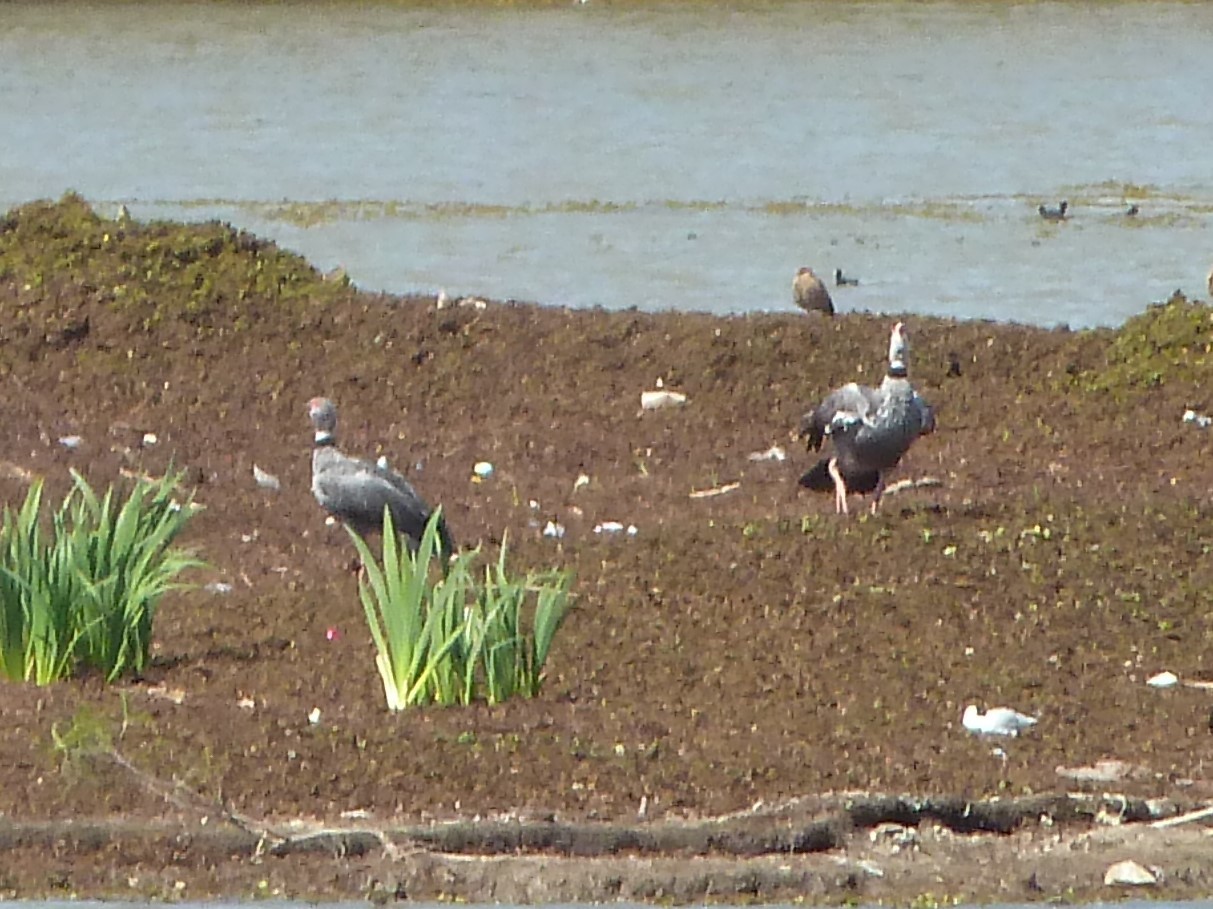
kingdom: Animalia
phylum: Chordata
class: Aves
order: Anseriformes
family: Anhimidae
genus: Chauna
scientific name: Chauna torquata
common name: Southern screamer
